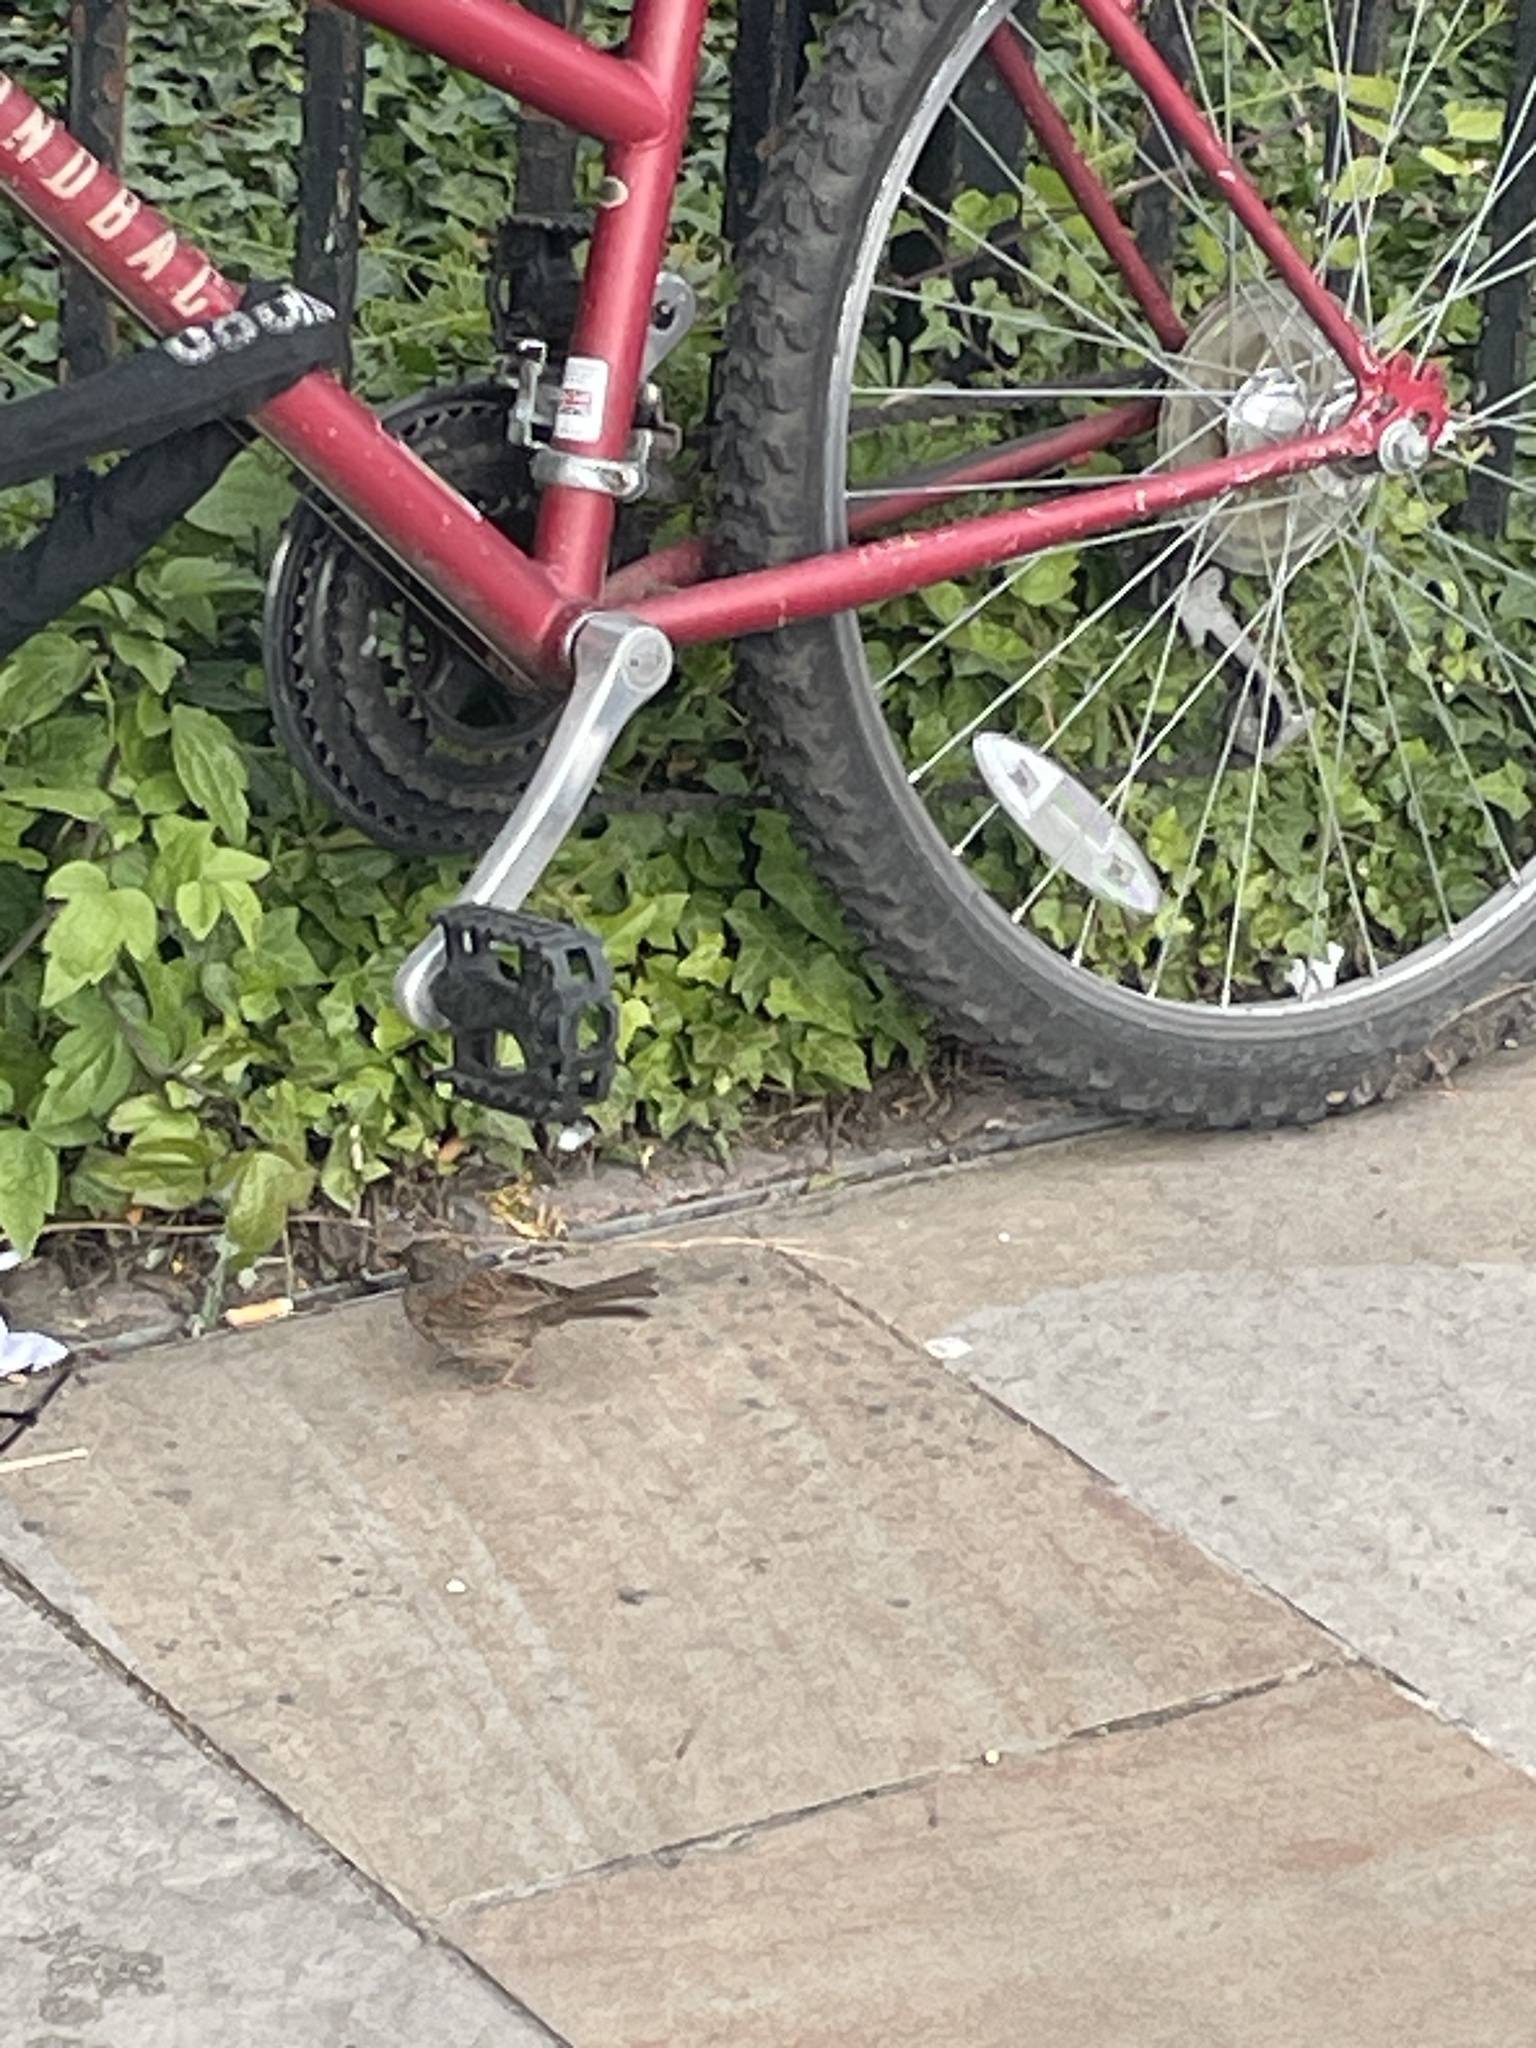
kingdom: Animalia
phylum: Chordata
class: Aves
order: Passeriformes
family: Prunellidae
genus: Prunella
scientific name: Prunella modularis
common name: Dunnock
